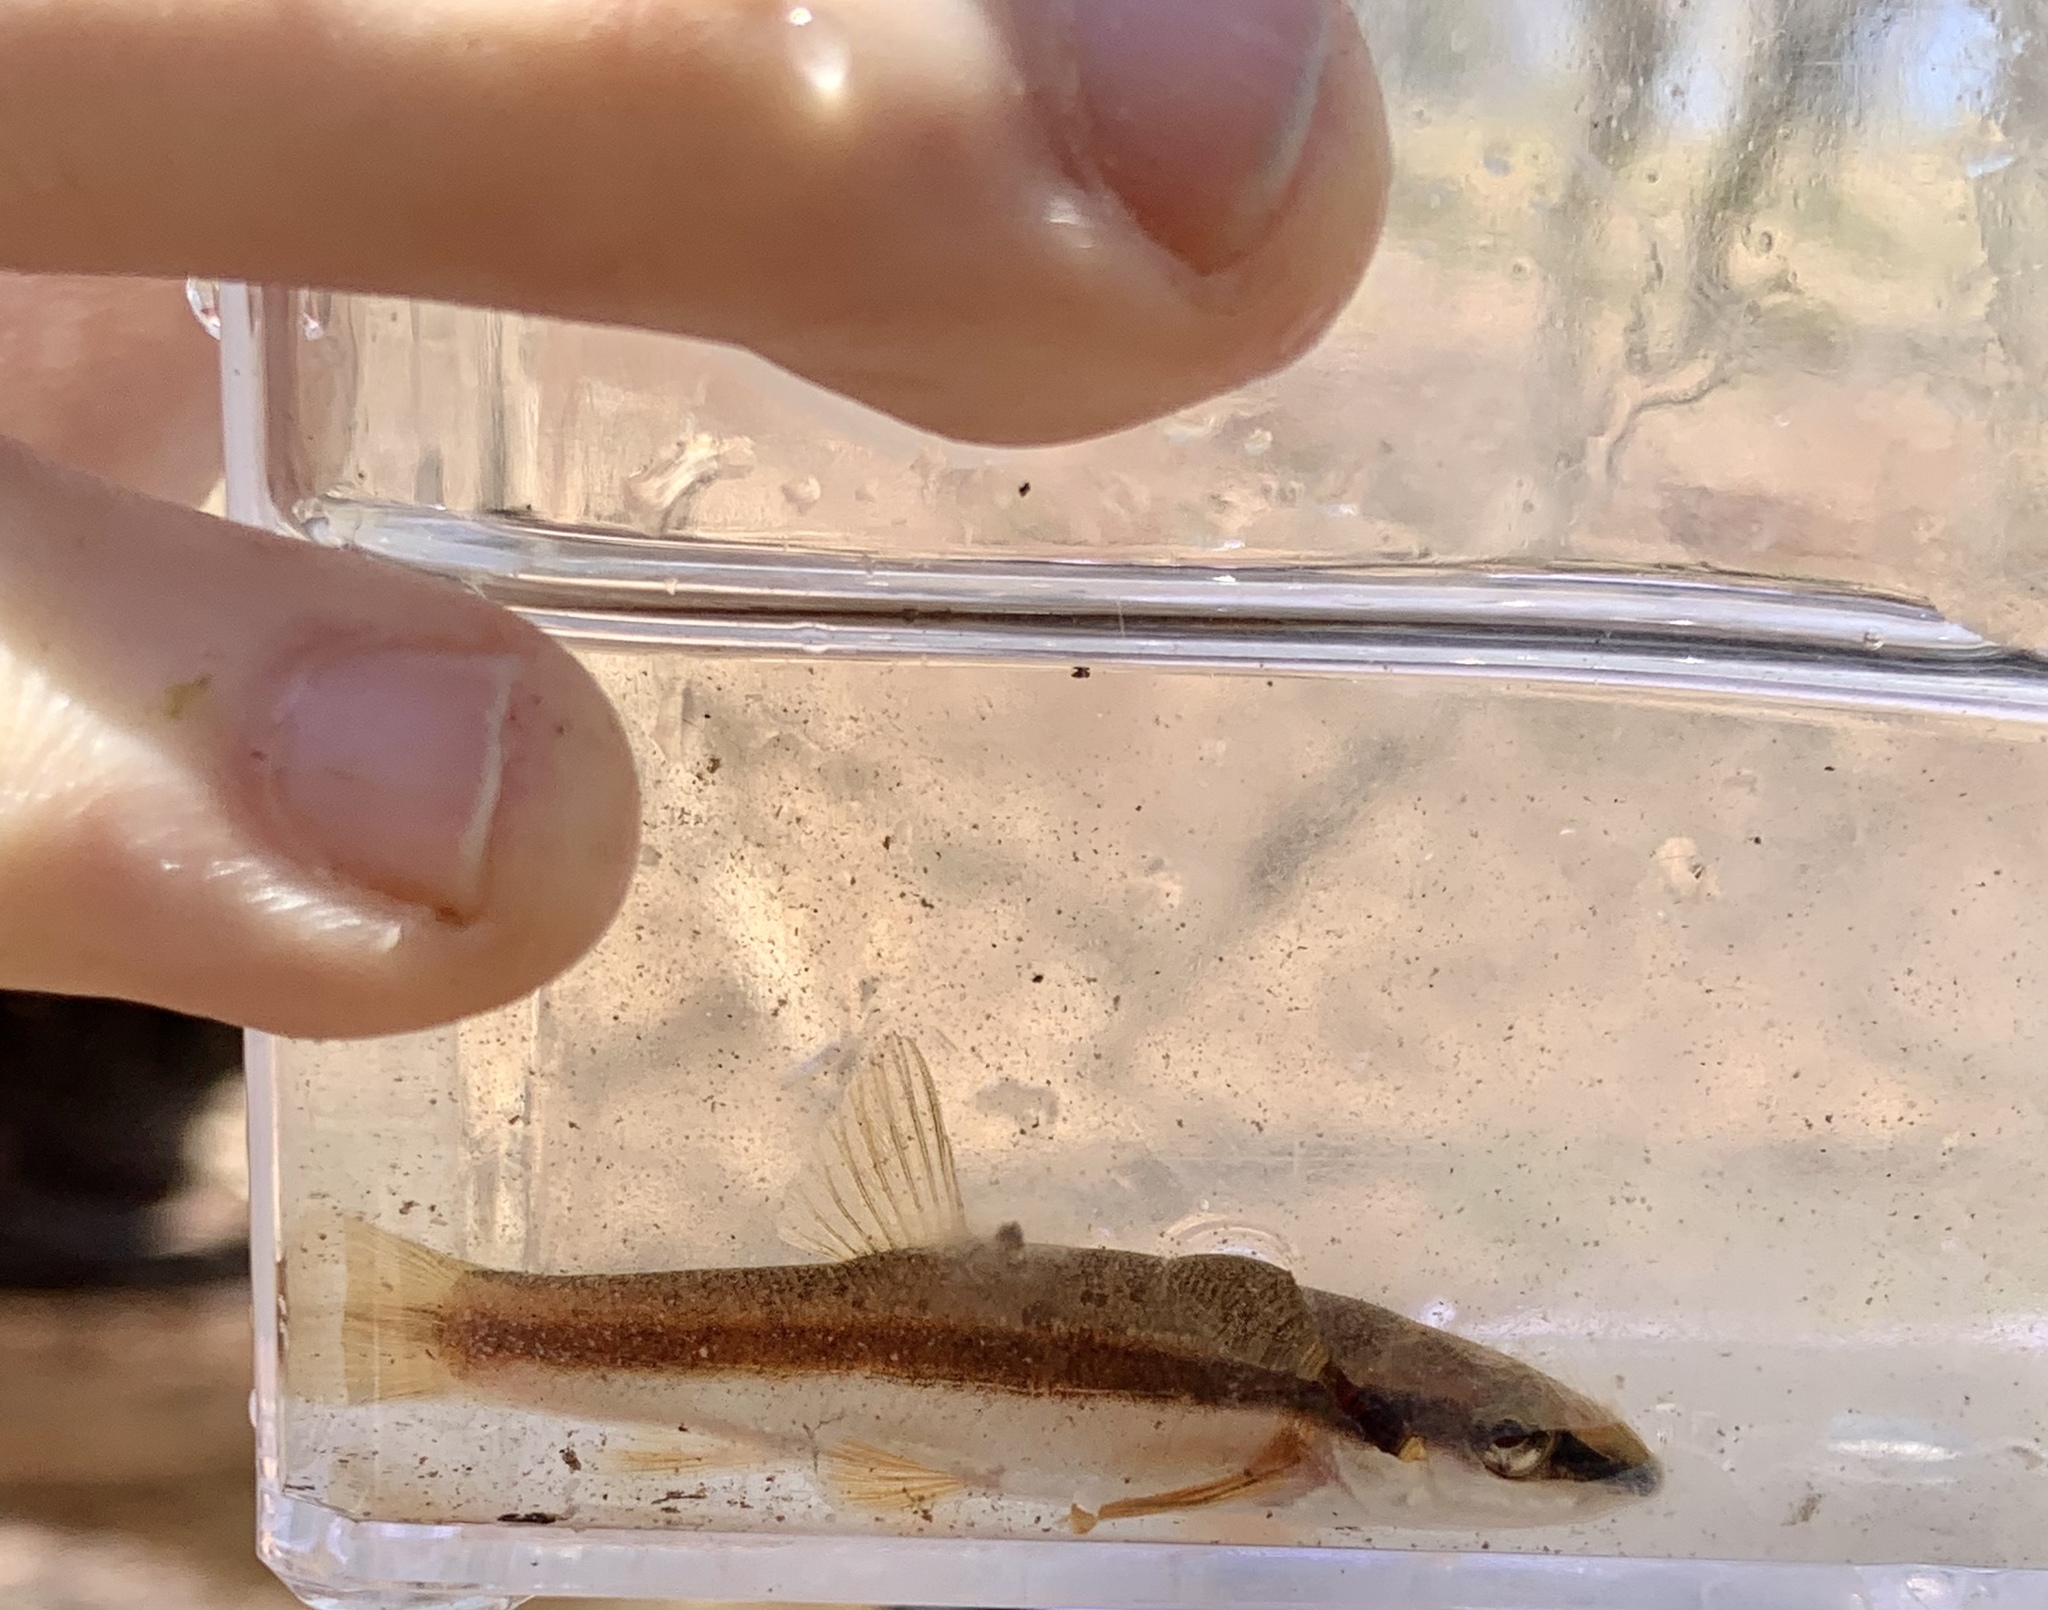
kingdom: Animalia
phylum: Chordata
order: Cypriniformes
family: Cyprinidae
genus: Rhinichthys
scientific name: Rhinichthys atratulus
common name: Eastern blacknose dace
